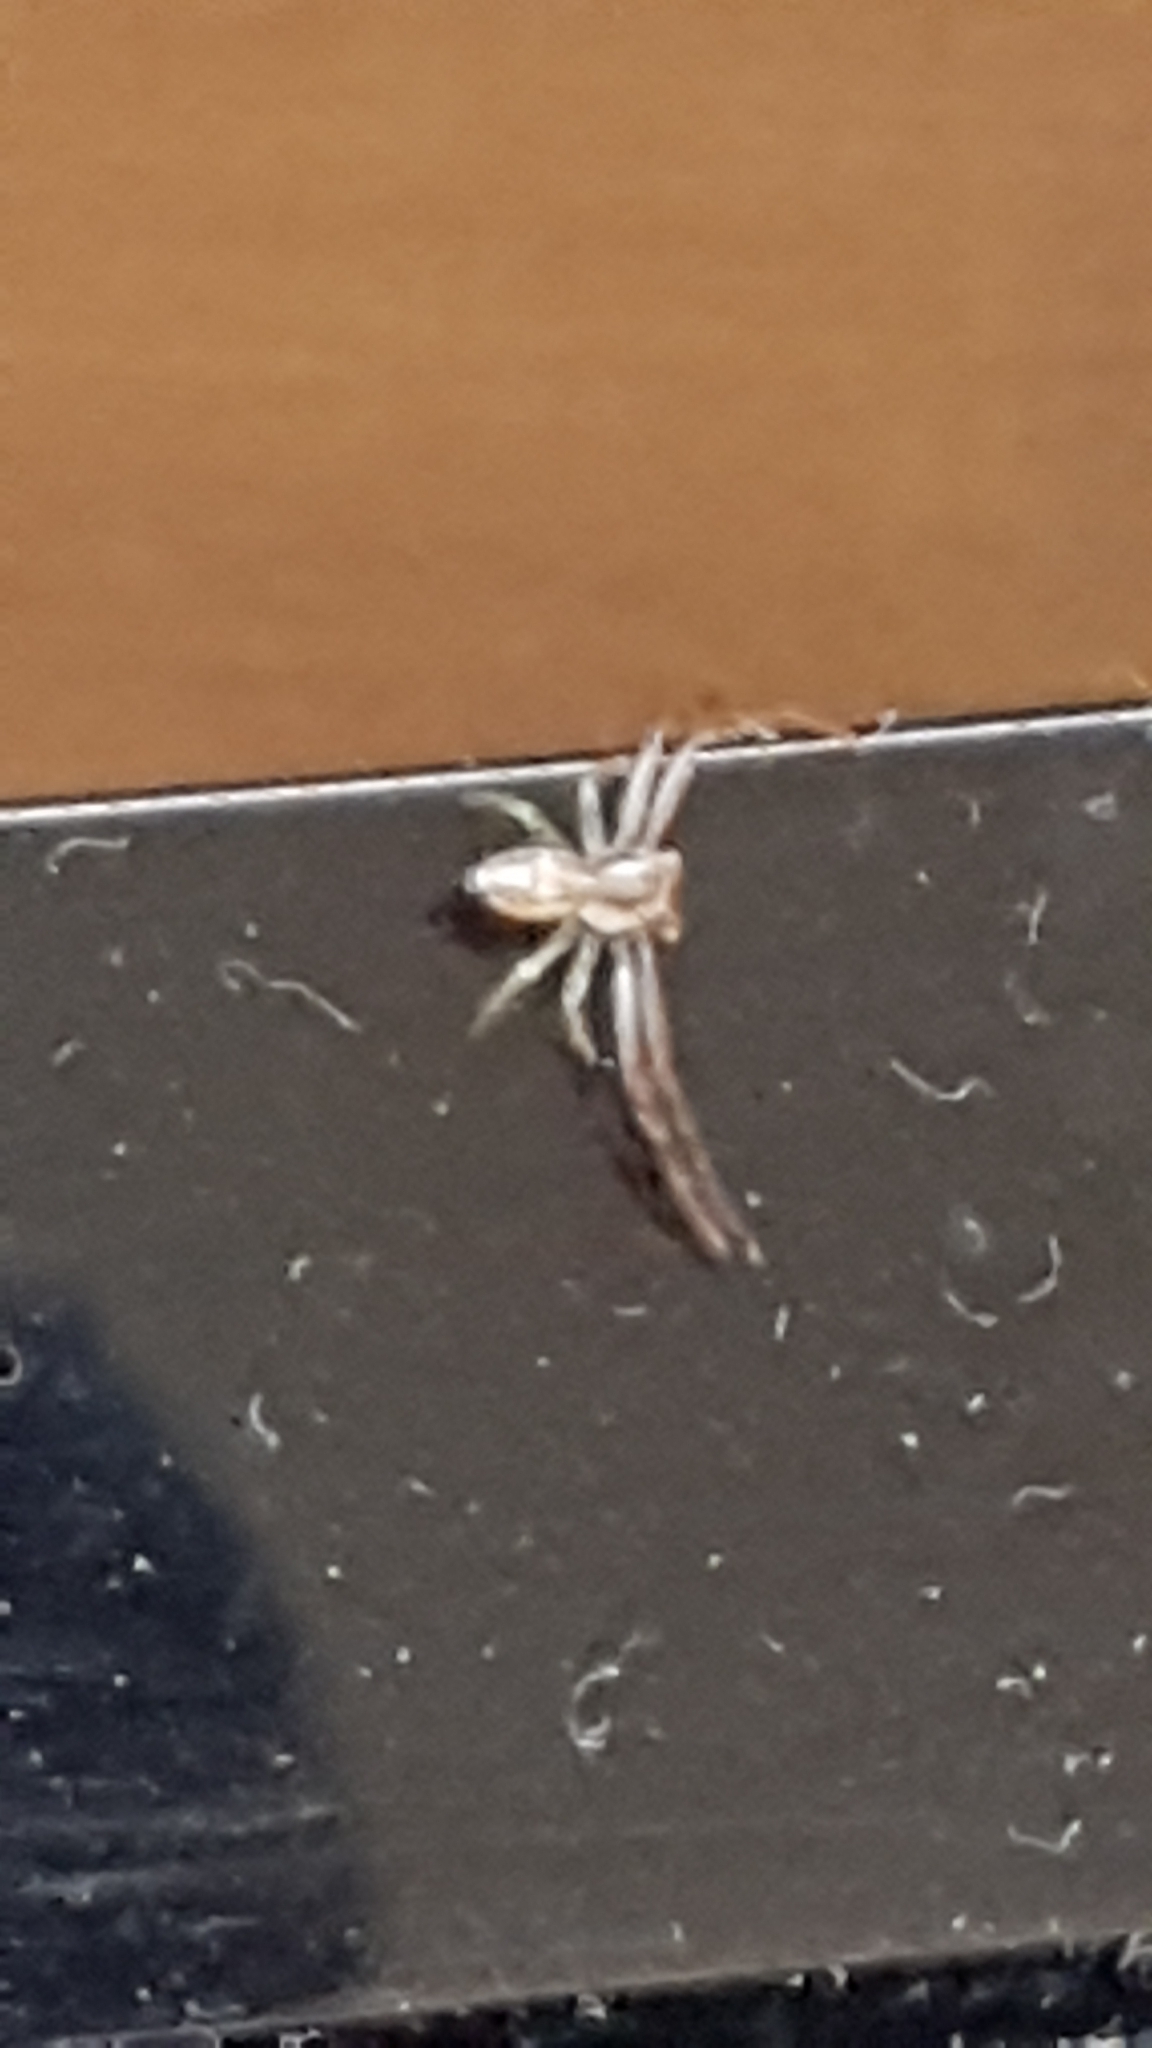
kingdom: Animalia
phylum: Arthropoda
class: Arachnida
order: Araneae
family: Thomisidae
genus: Diaea
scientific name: Diaea ambara
